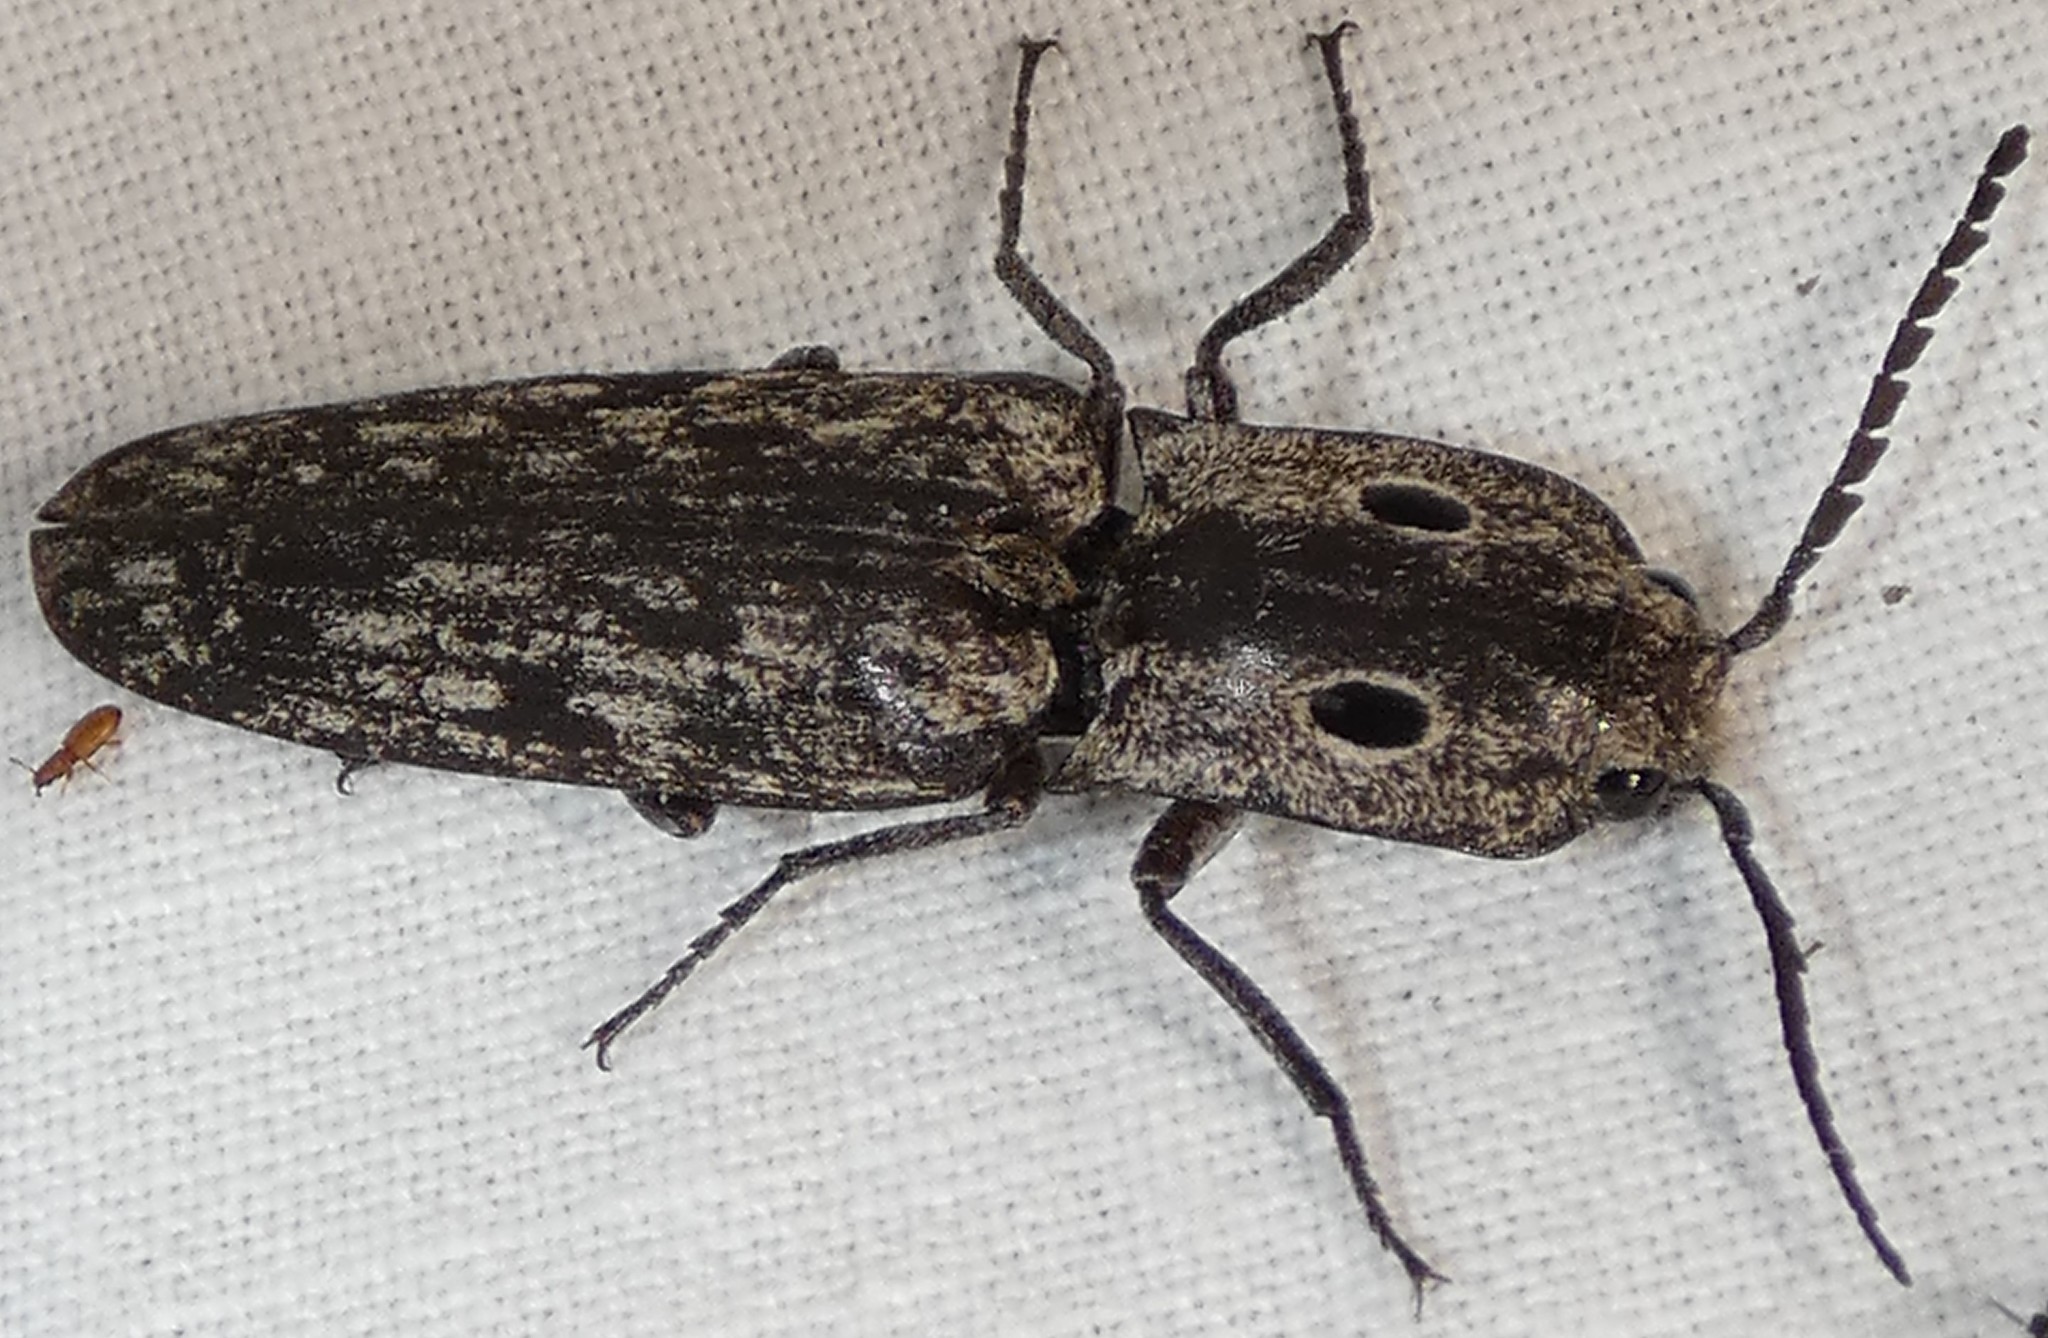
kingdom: Animalia
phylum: Arthropoda
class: Insecta
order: Coleoptera
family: Elateridae
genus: Alaus
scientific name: Alaus myops
